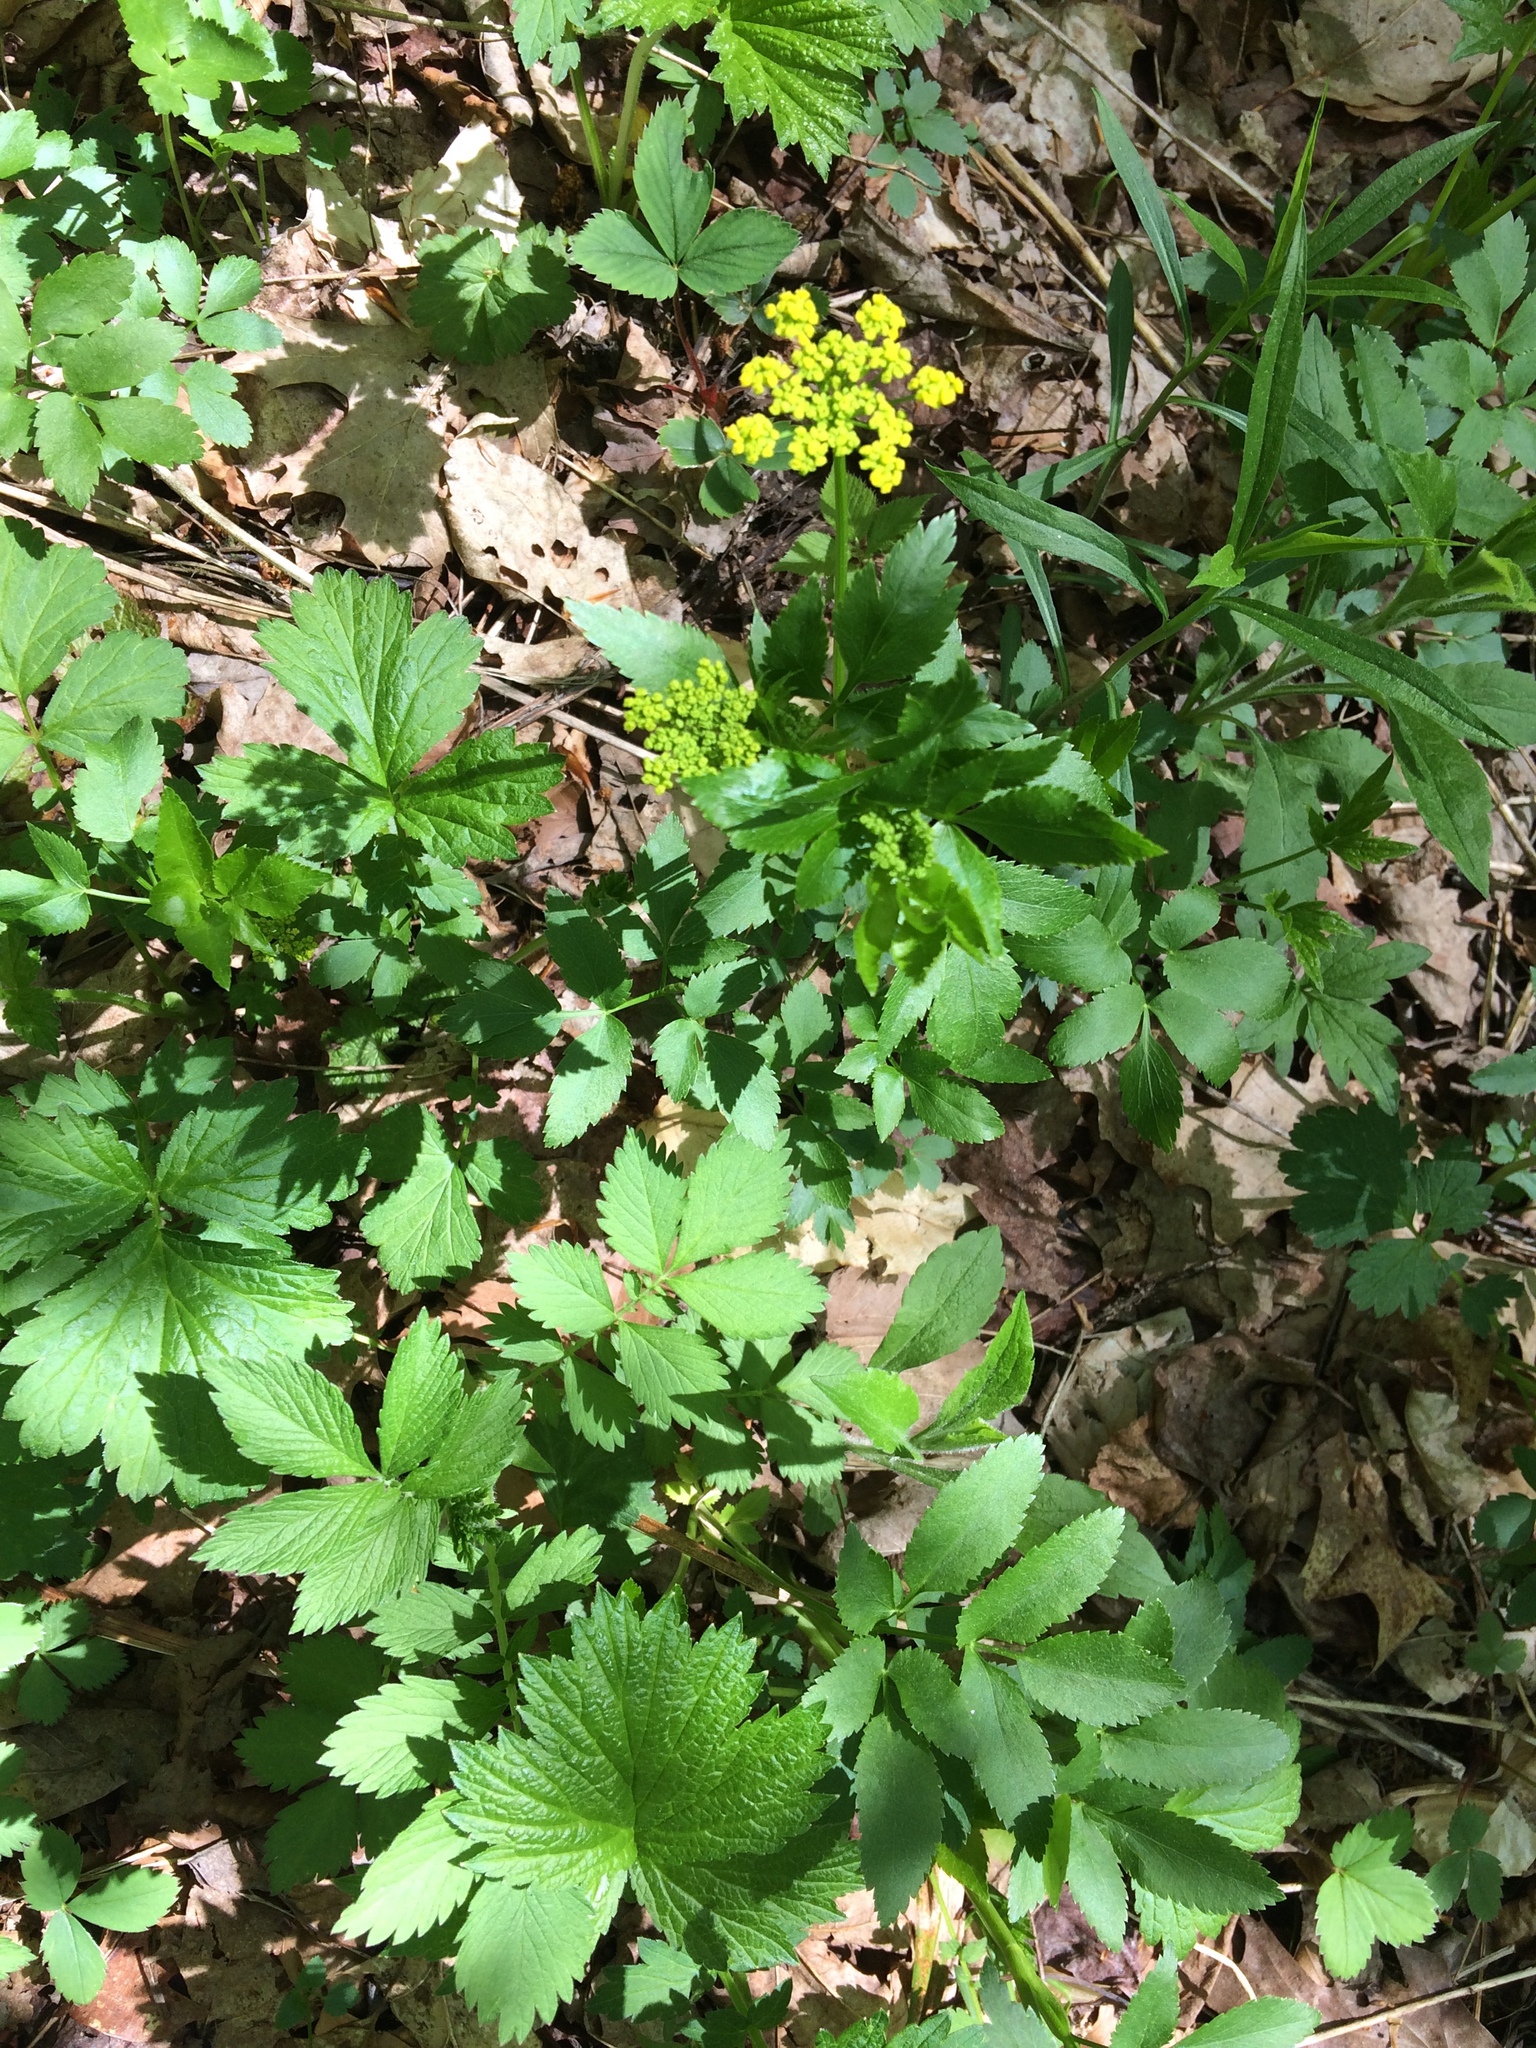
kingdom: Plantae
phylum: Tracheophyta
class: Magnoliopsida
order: Apiales
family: Apiaceae
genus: Zizia
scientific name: Zizia aurea
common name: Golden alexanders
